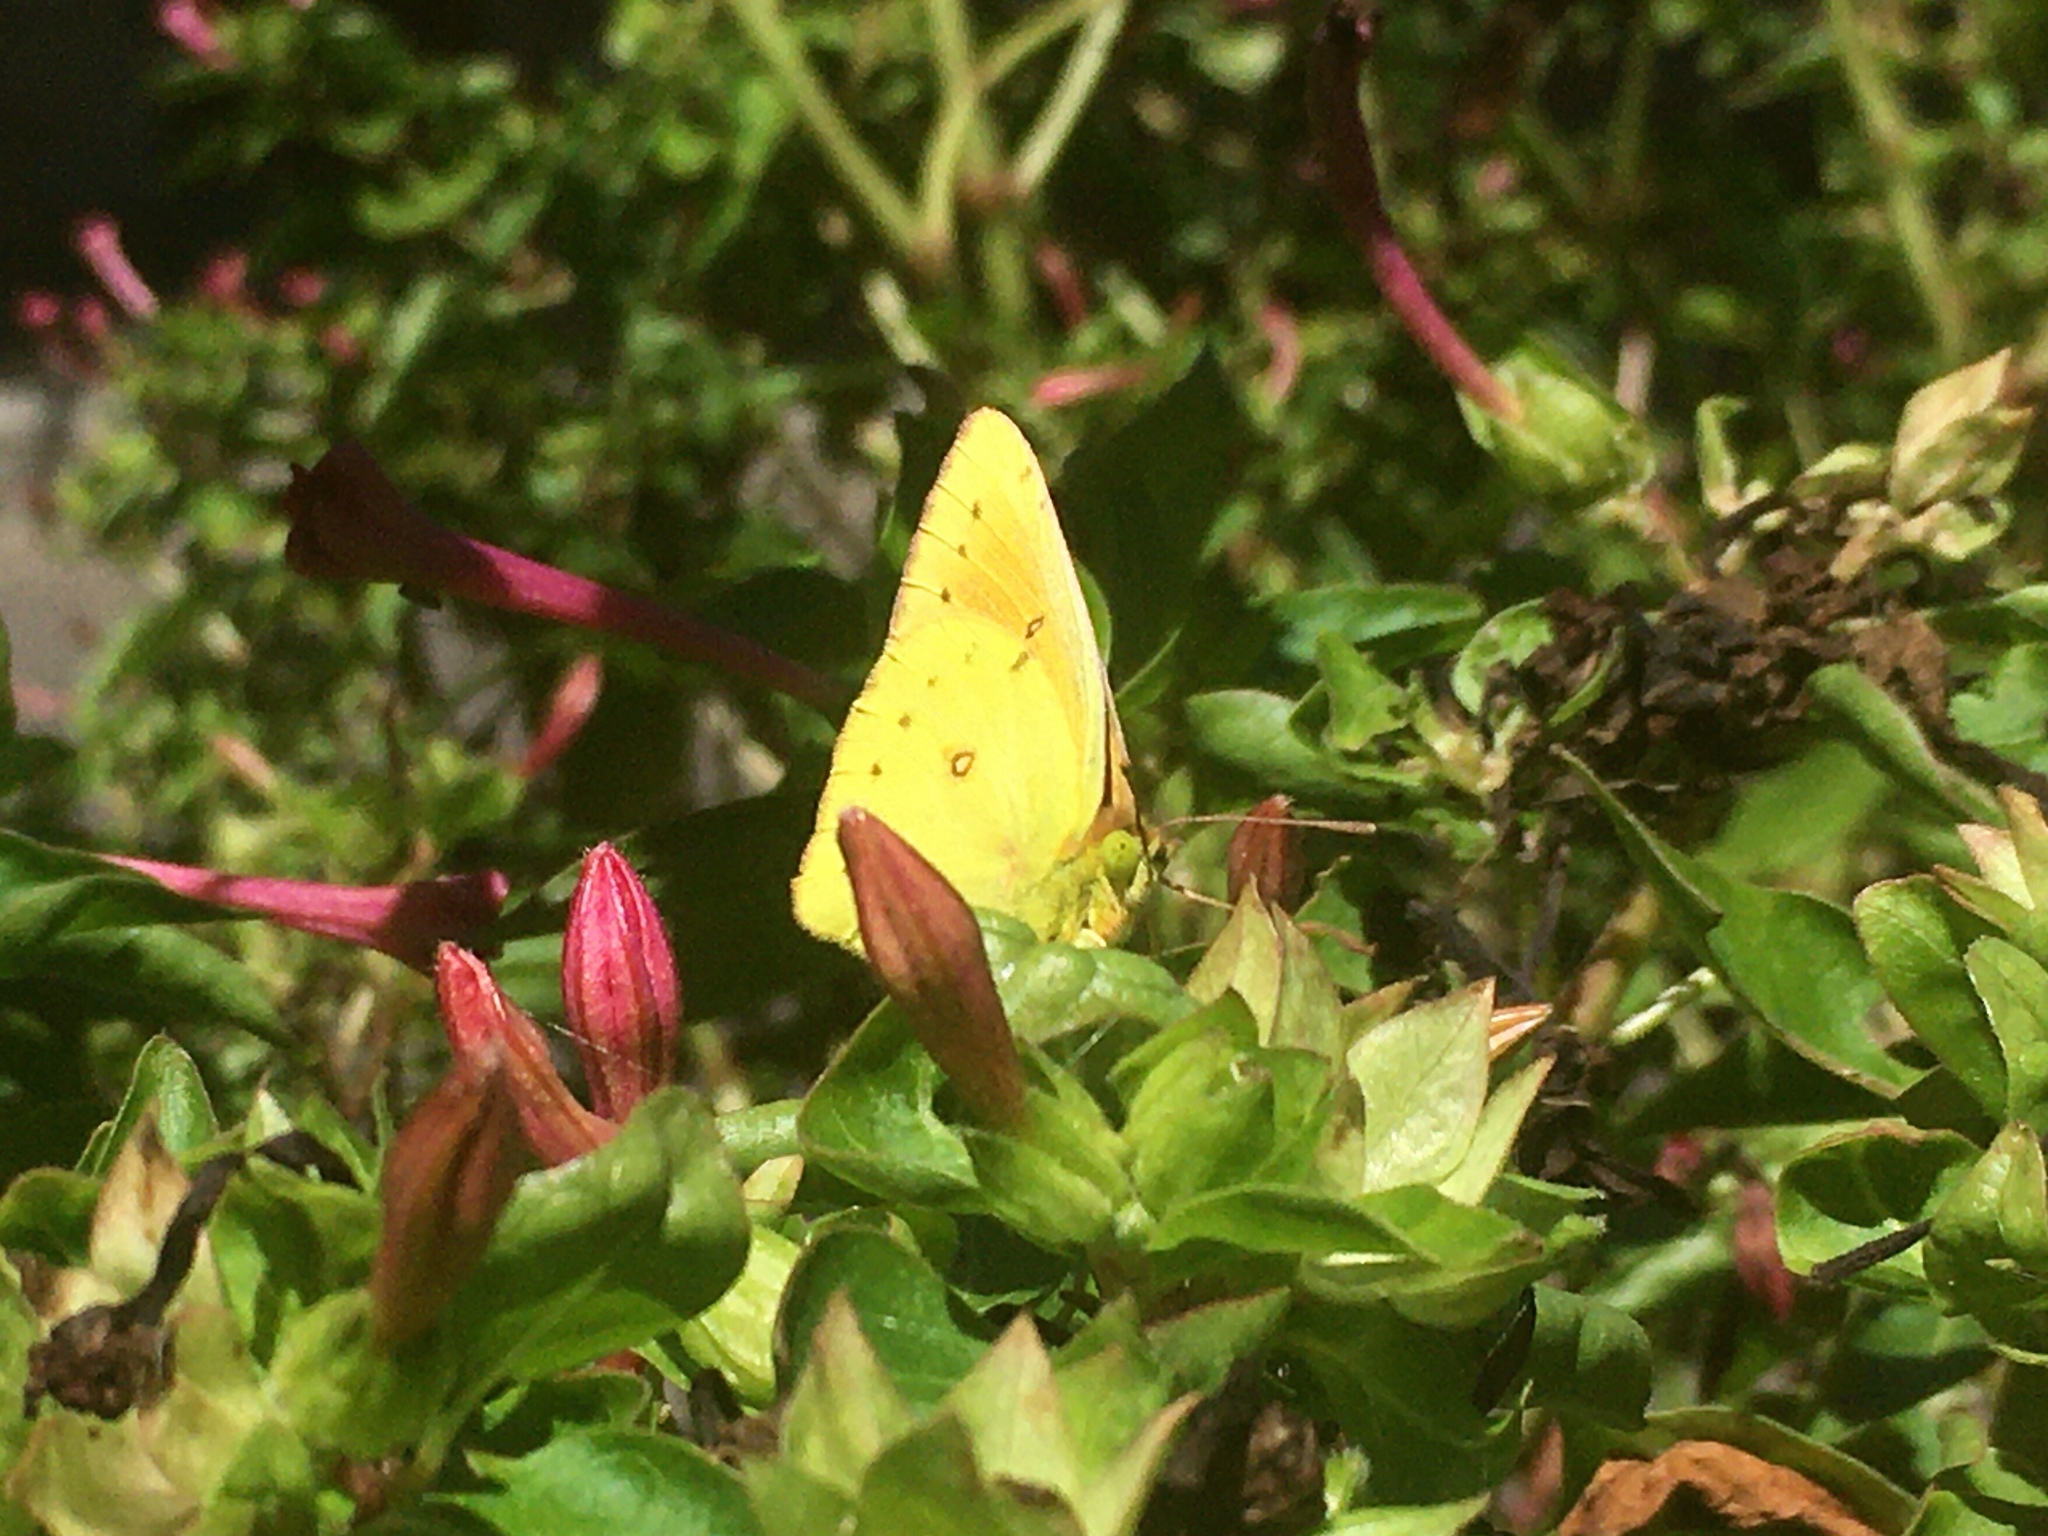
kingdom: Animalia
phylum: Arthropoda
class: Insecta
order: Lepidoptera
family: Pieridae
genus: Colias
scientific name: Colias lesbia
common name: Lesbia clouded yellow
